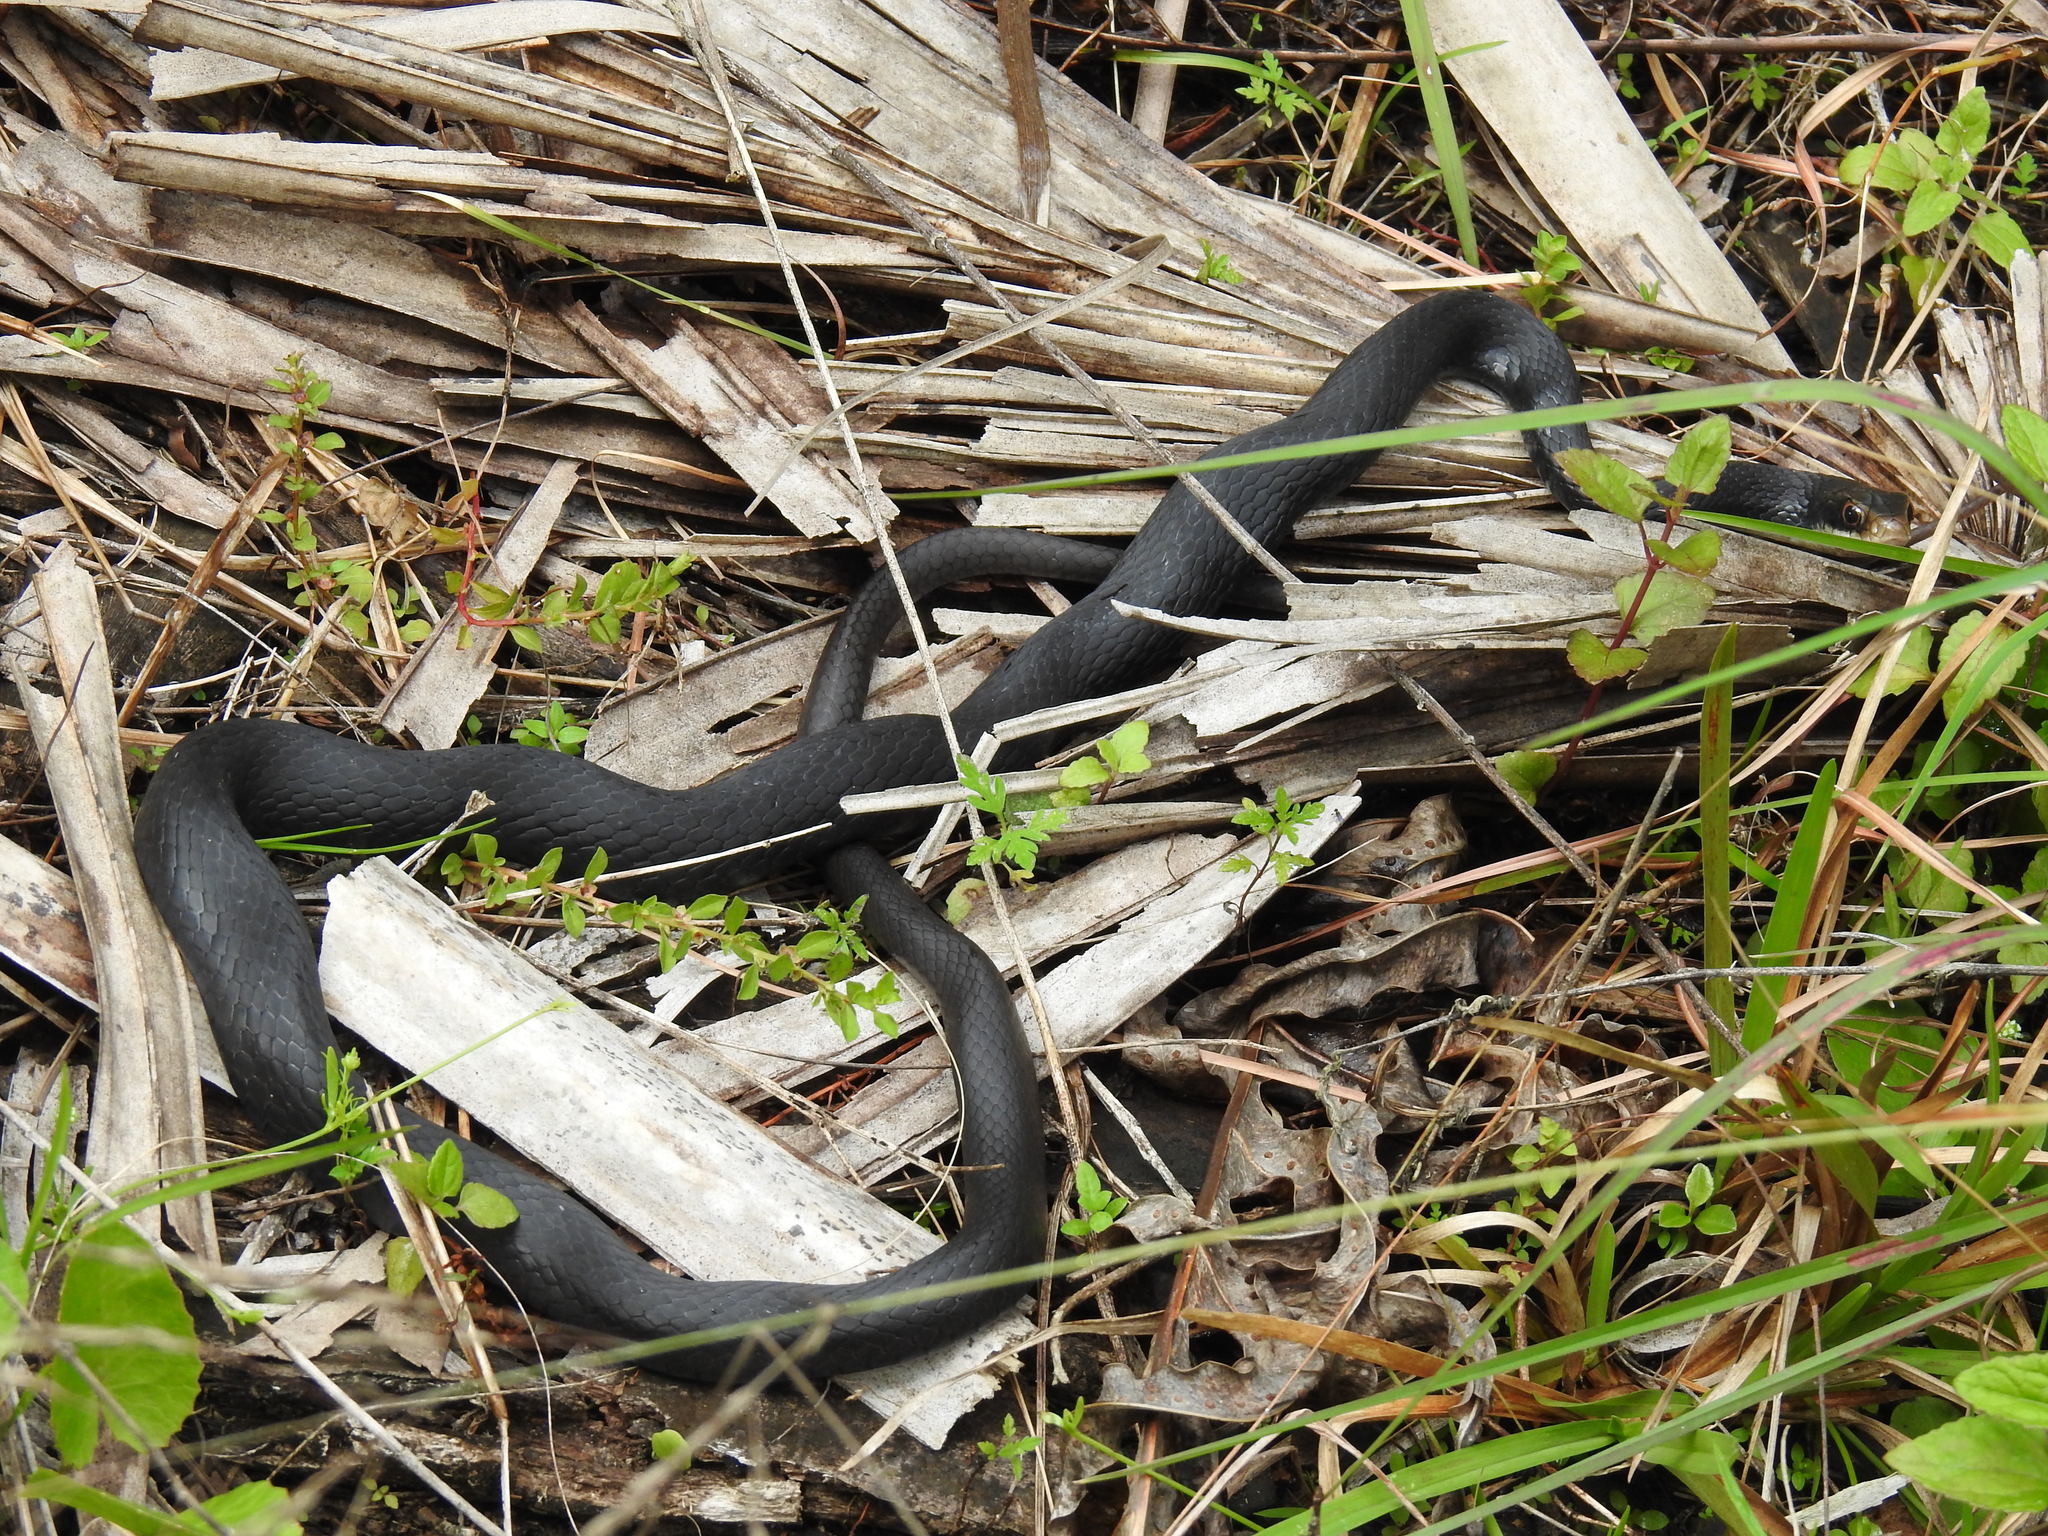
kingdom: Animalia
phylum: Chordata
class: Squamata
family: Colubridae
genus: Coluber
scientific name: Coluber constrictor
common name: Eastern racer
